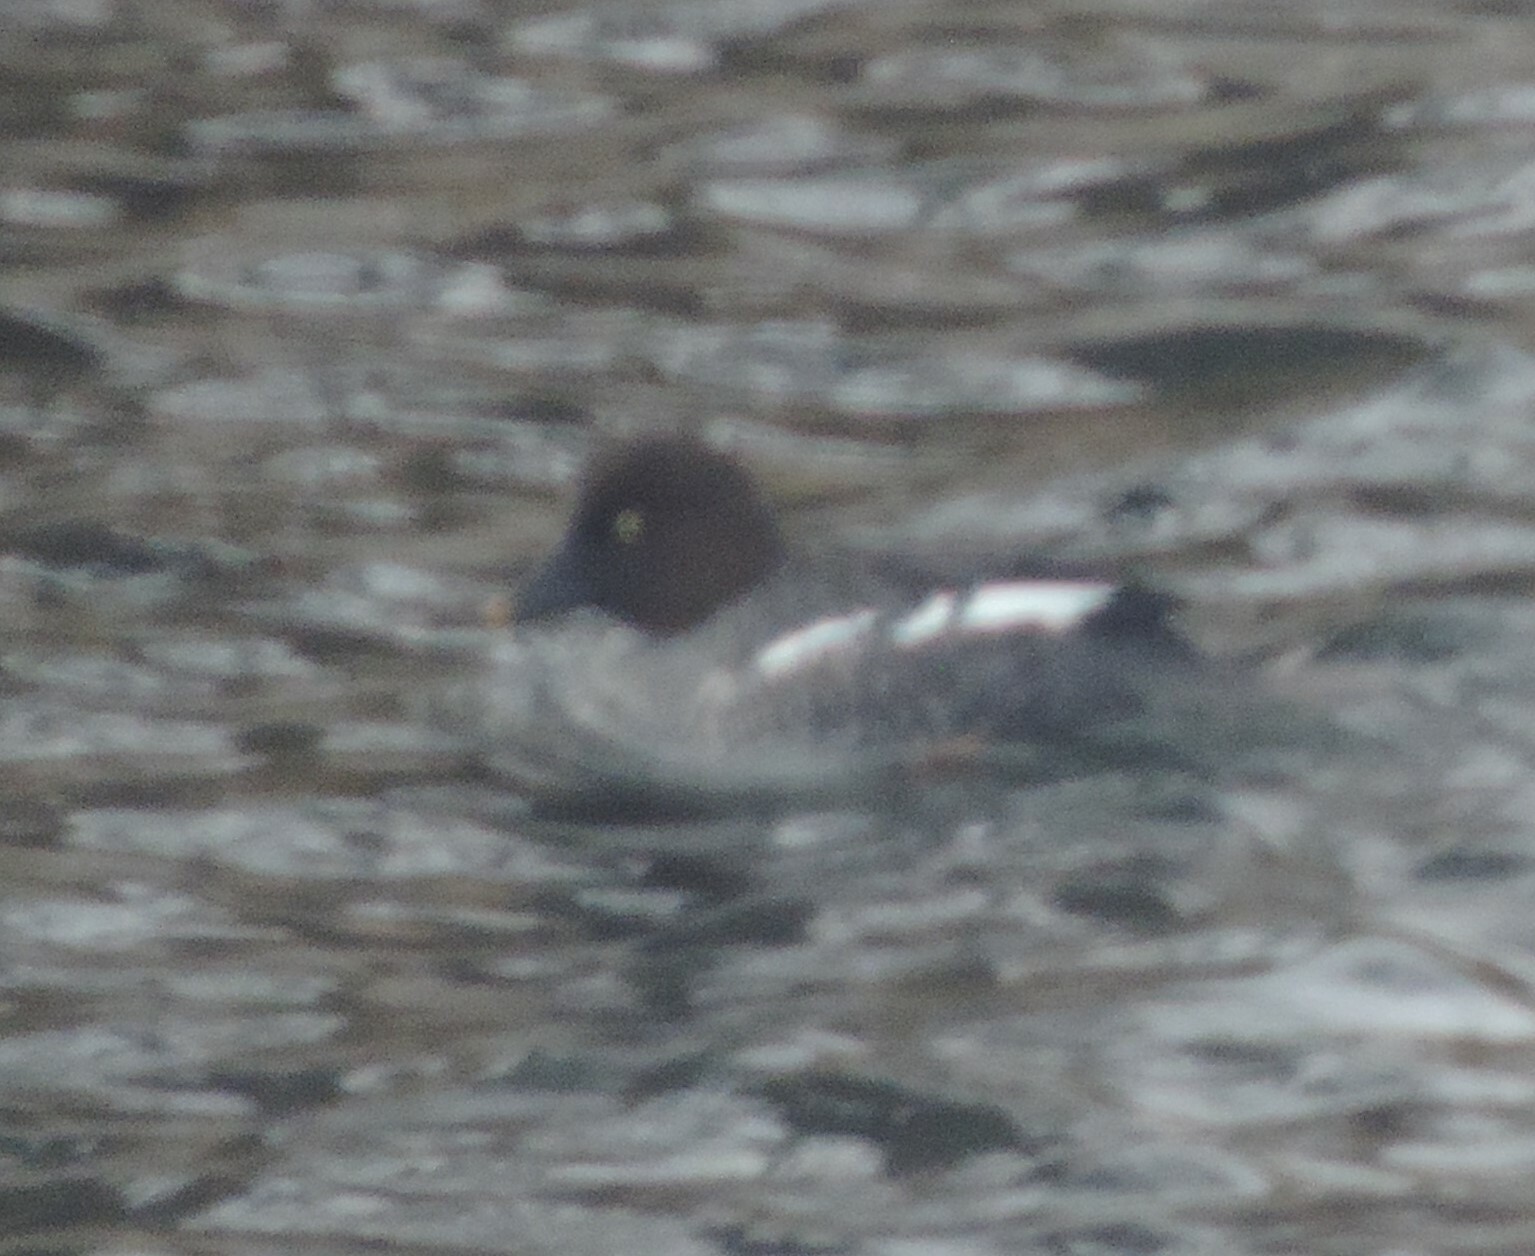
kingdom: Animalia
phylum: Chordata
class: Aves
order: Anseriformes
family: Anatidae
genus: Bucephala
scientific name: Bucephala clangula
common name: Common goldeneye
